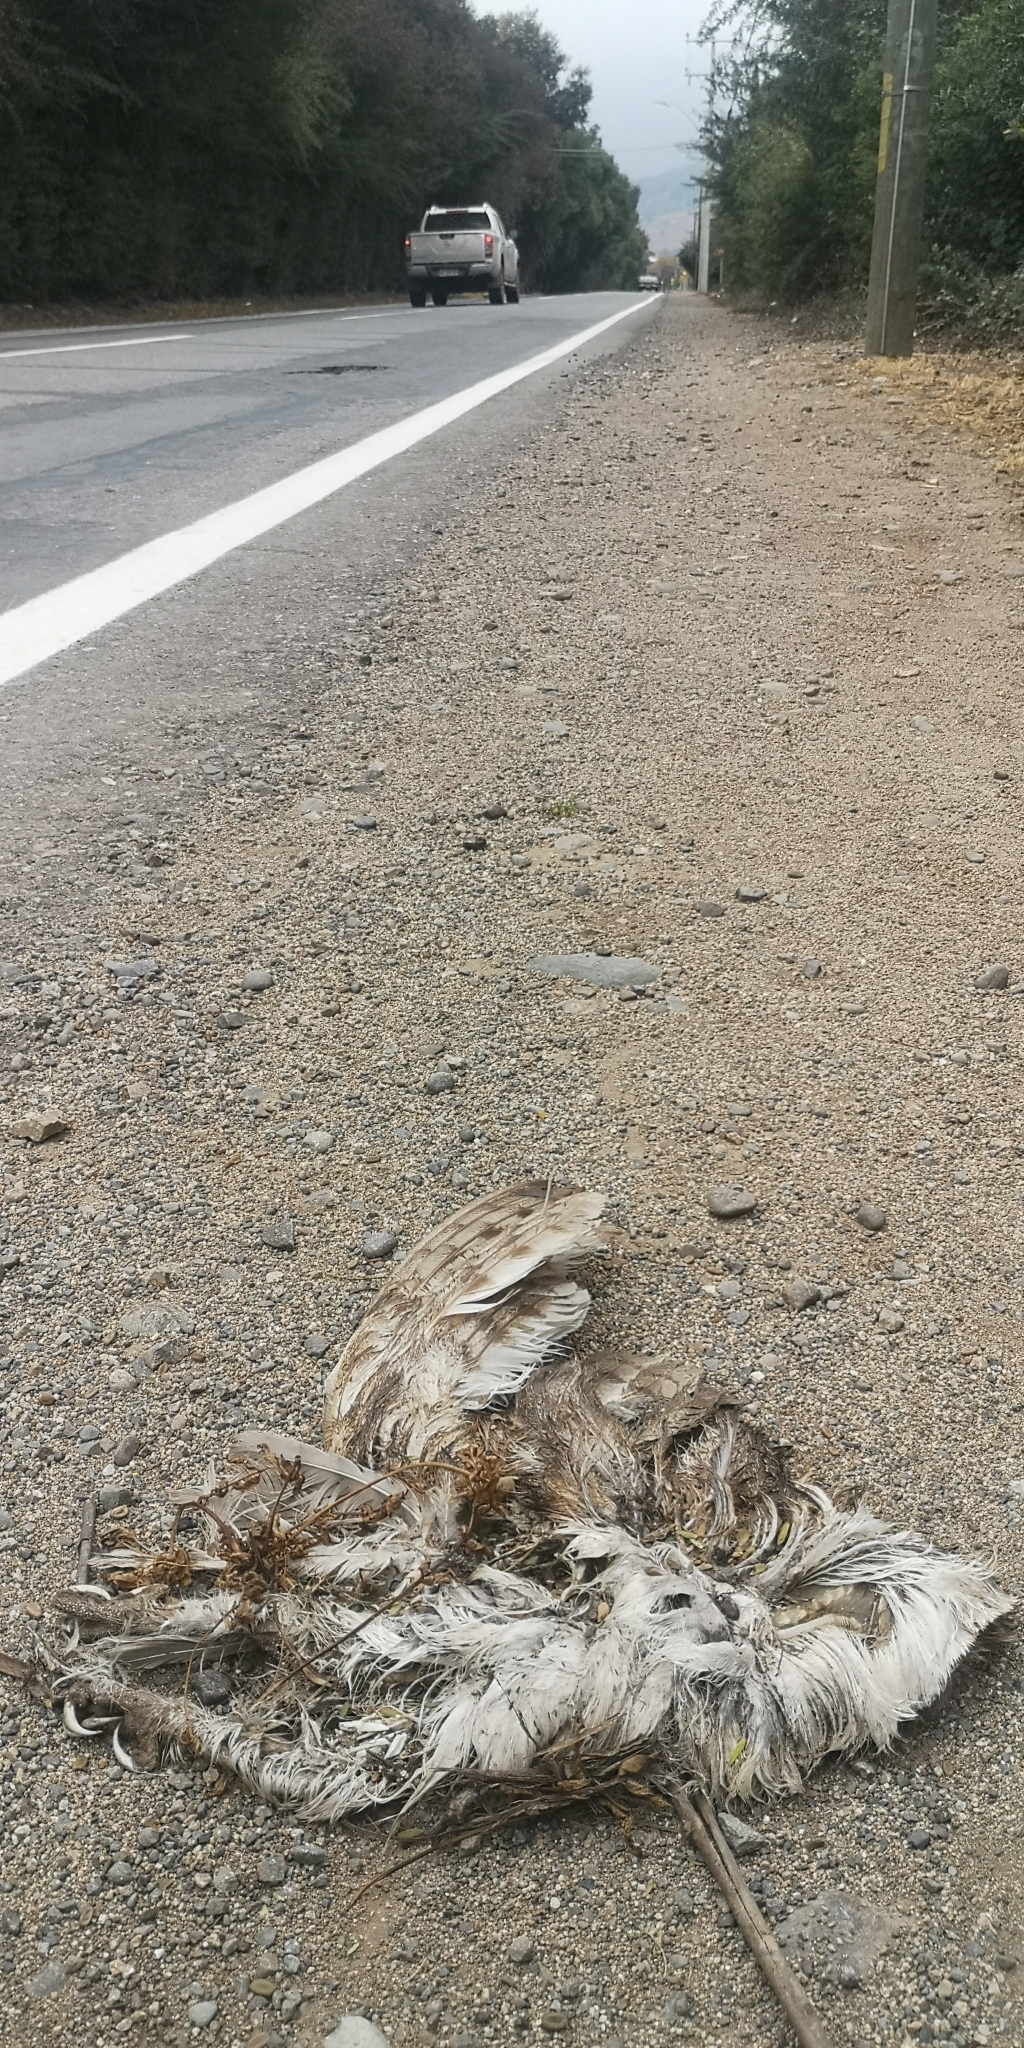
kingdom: Animalia
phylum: Chordata
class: Aves
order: Strigiformes
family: Tytonidae
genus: Tyto
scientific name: Tyto alba
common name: Barn owl
